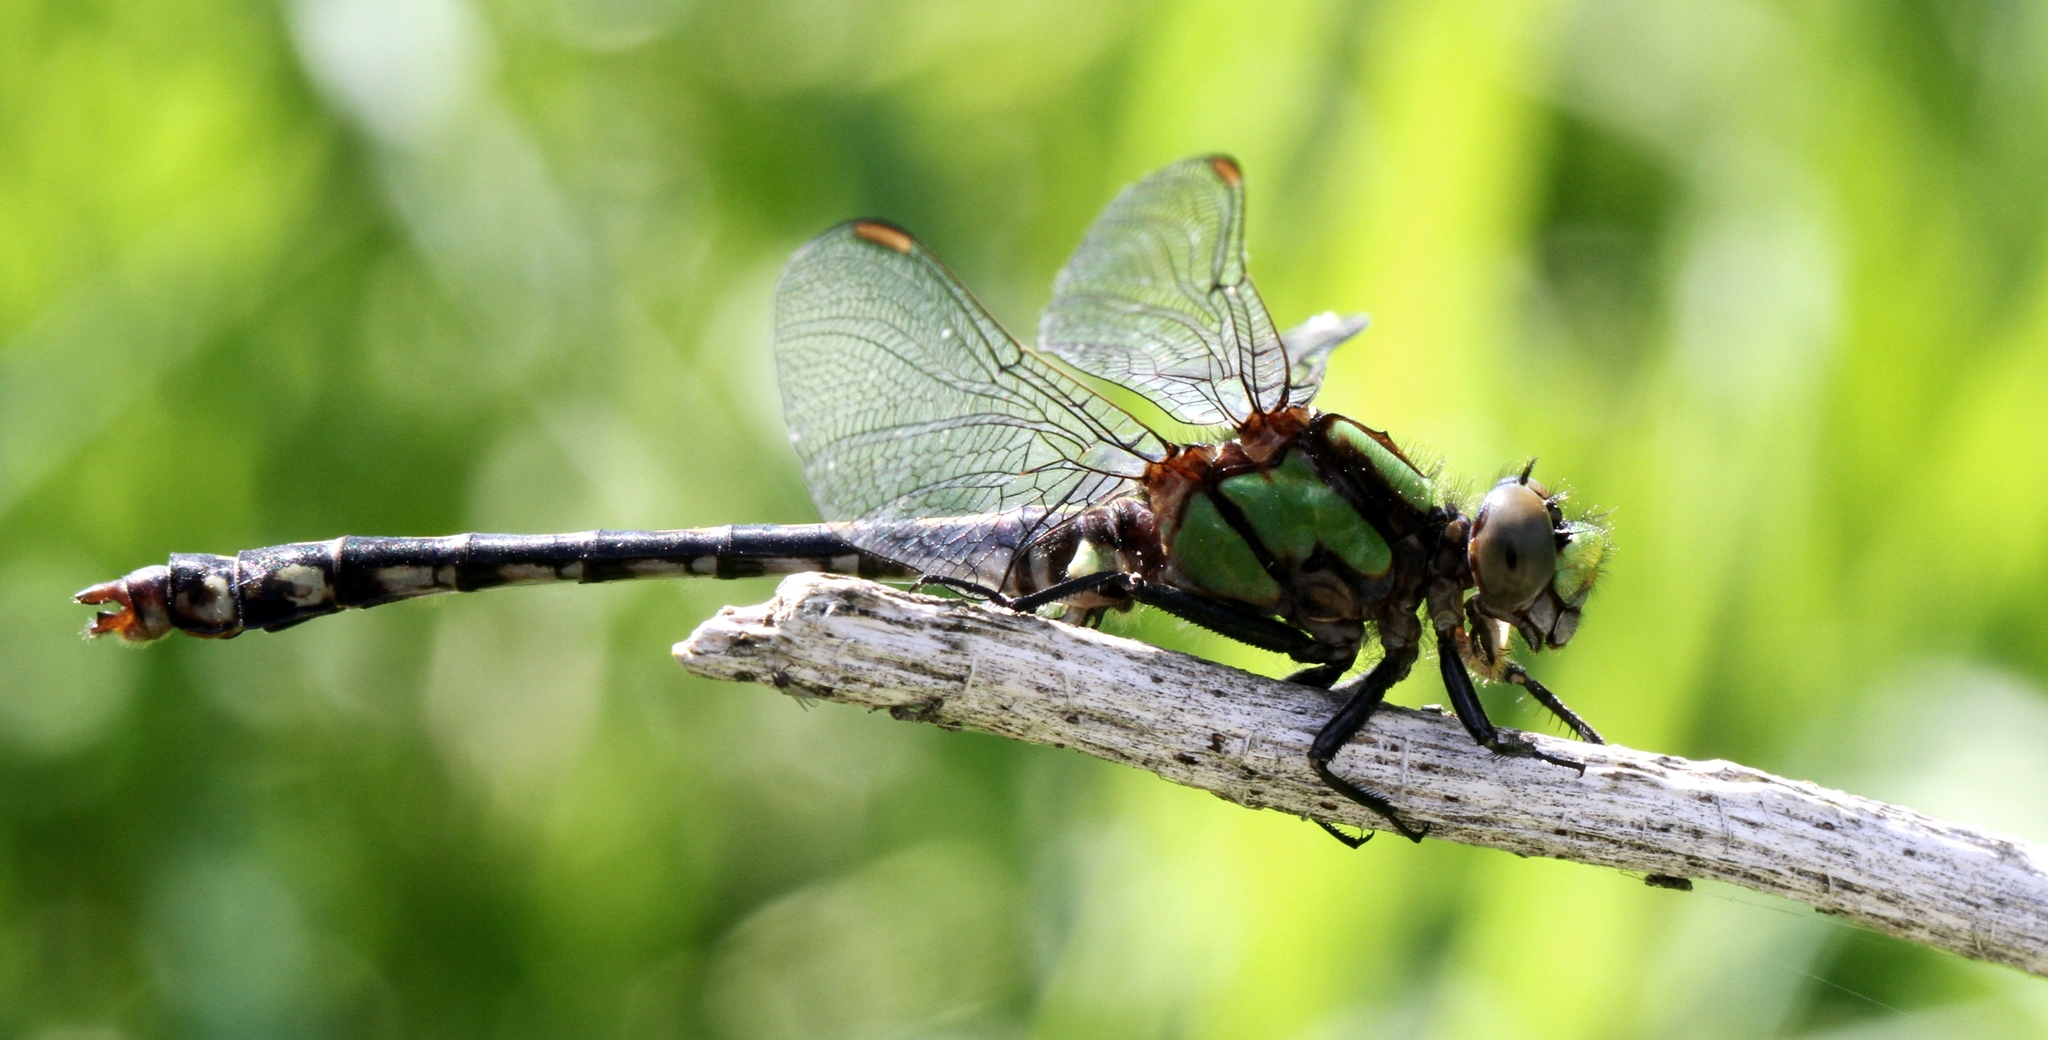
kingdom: Animalia
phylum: Arthropoda
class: Insecta
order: Odonata
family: Gomphidae
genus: Ophiogomphus
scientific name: Ophiogomphus carolus
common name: Riffle snaketail
